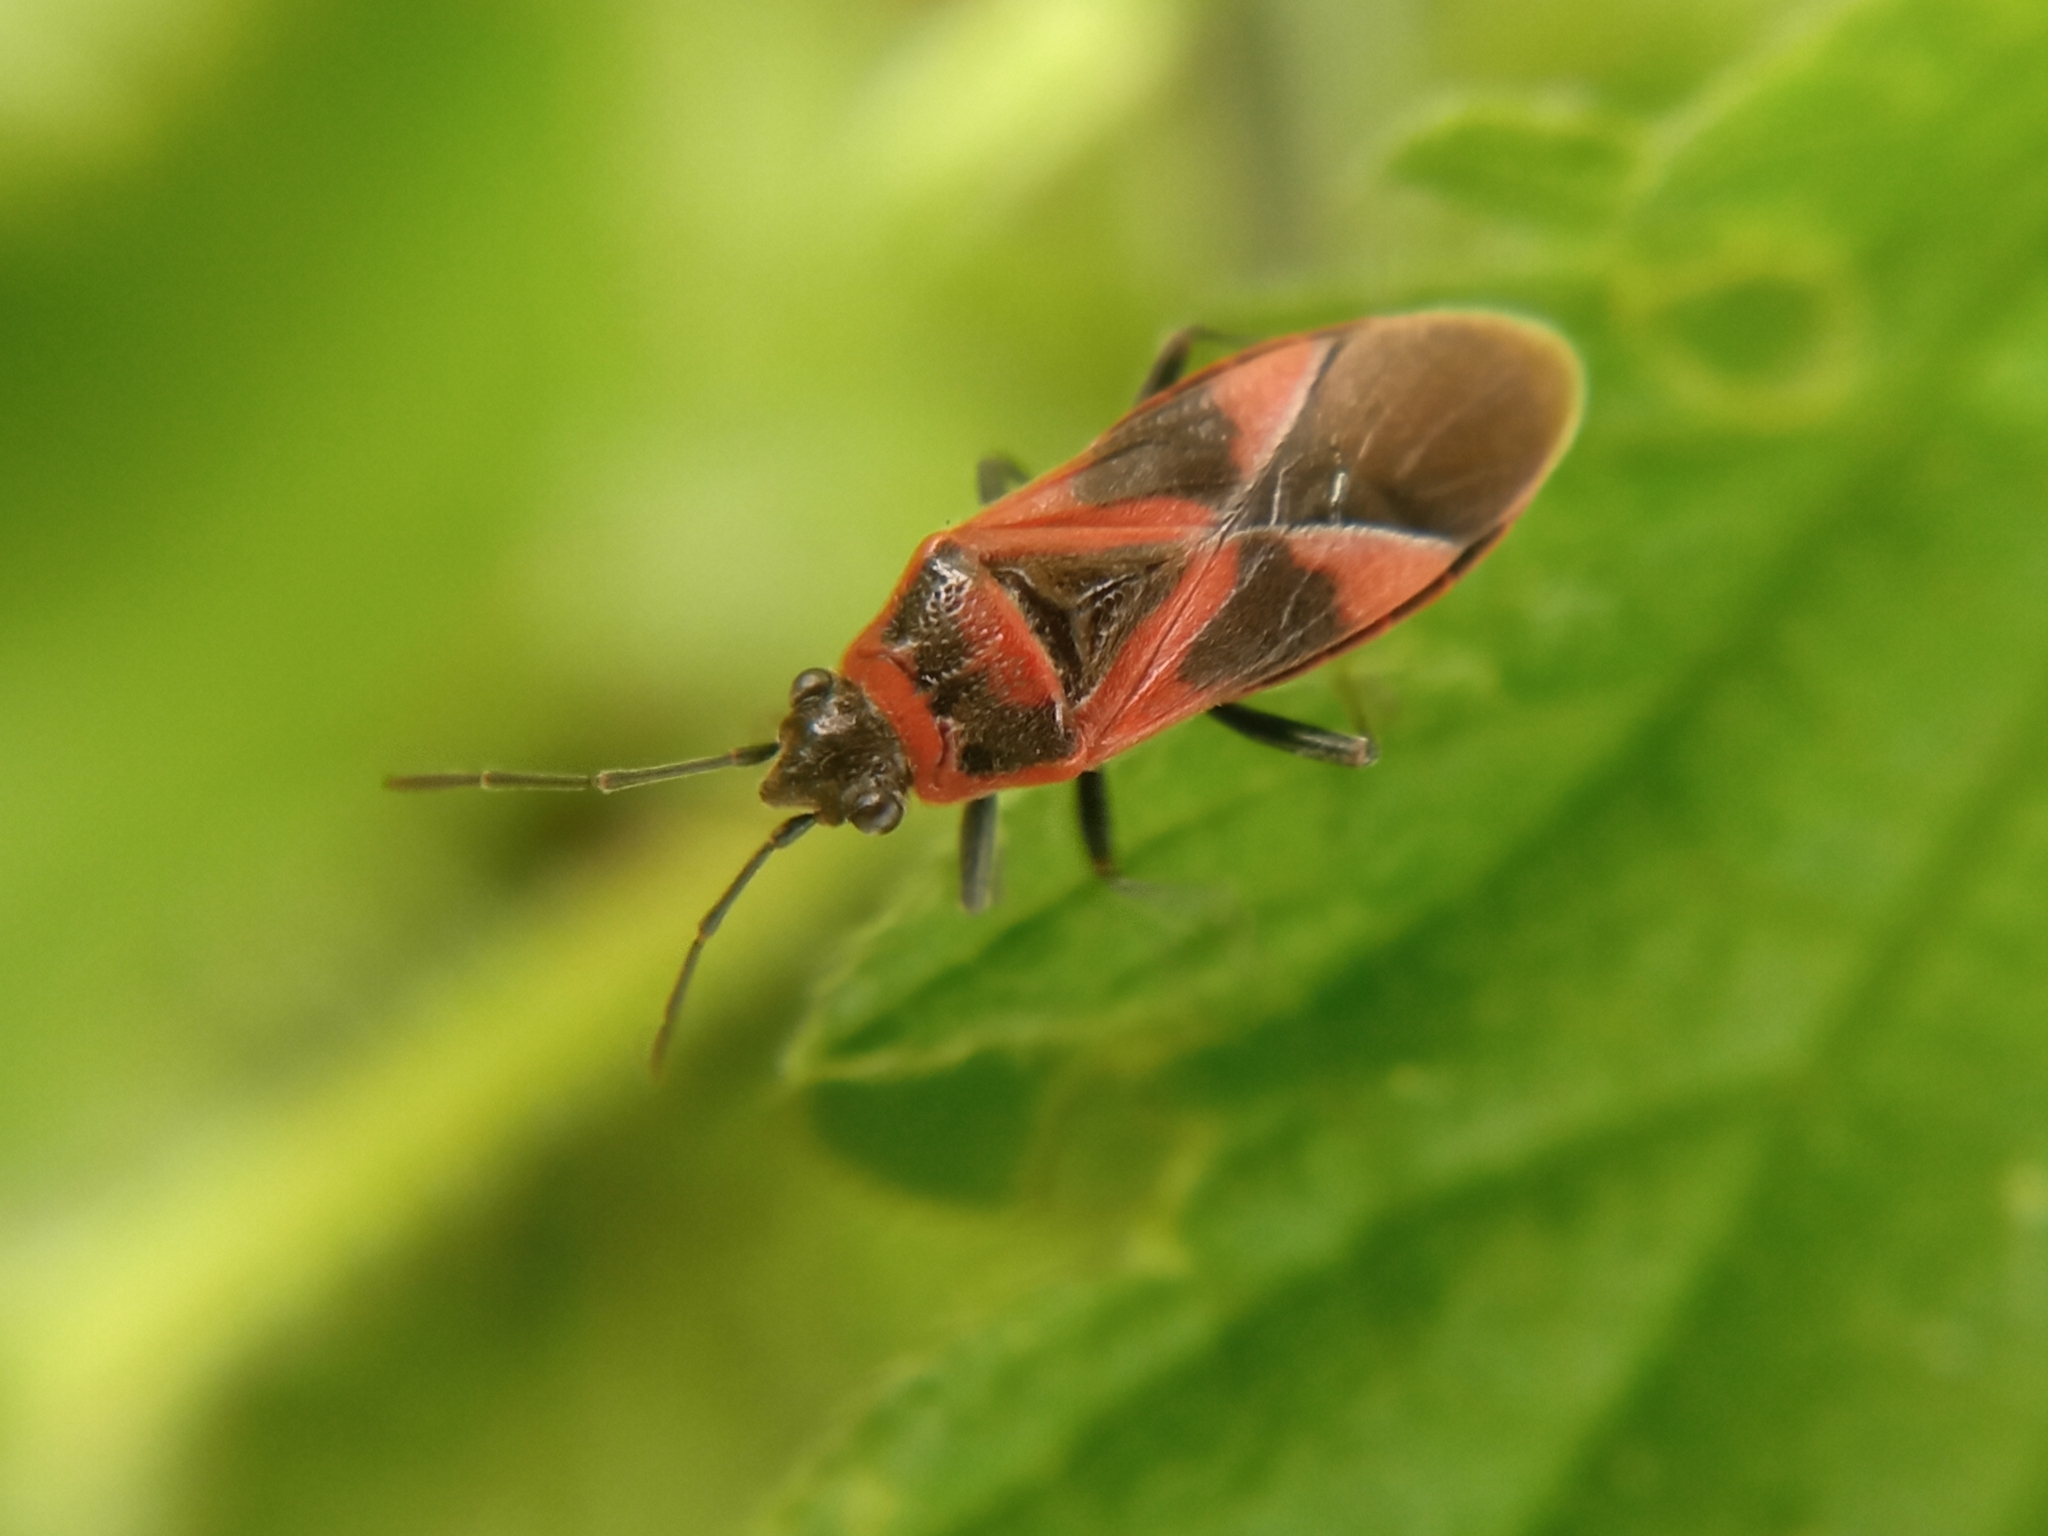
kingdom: Animalia
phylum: Arthropoda
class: Insecta
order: Hemiptera
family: Lygaeidae
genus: Arocatus
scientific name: Arocatus roeselii
